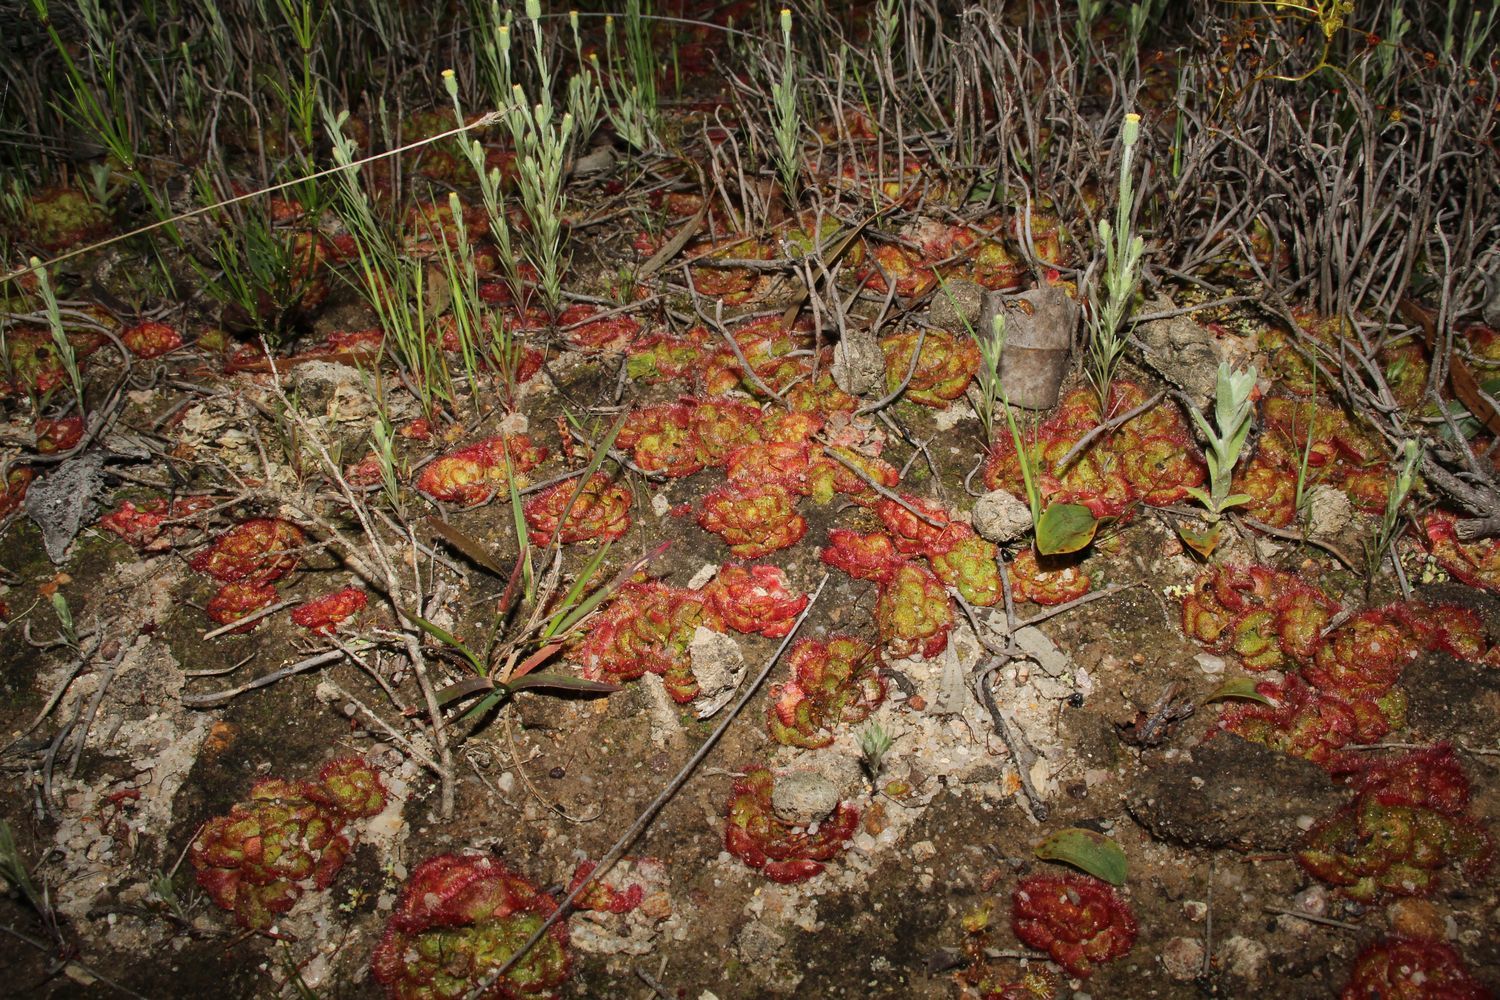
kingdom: Plantae
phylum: Tracheophyta
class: Magnoliopsida
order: Caryophyllales
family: Droseraceae
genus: Drosera
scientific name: Drosera zonaria
